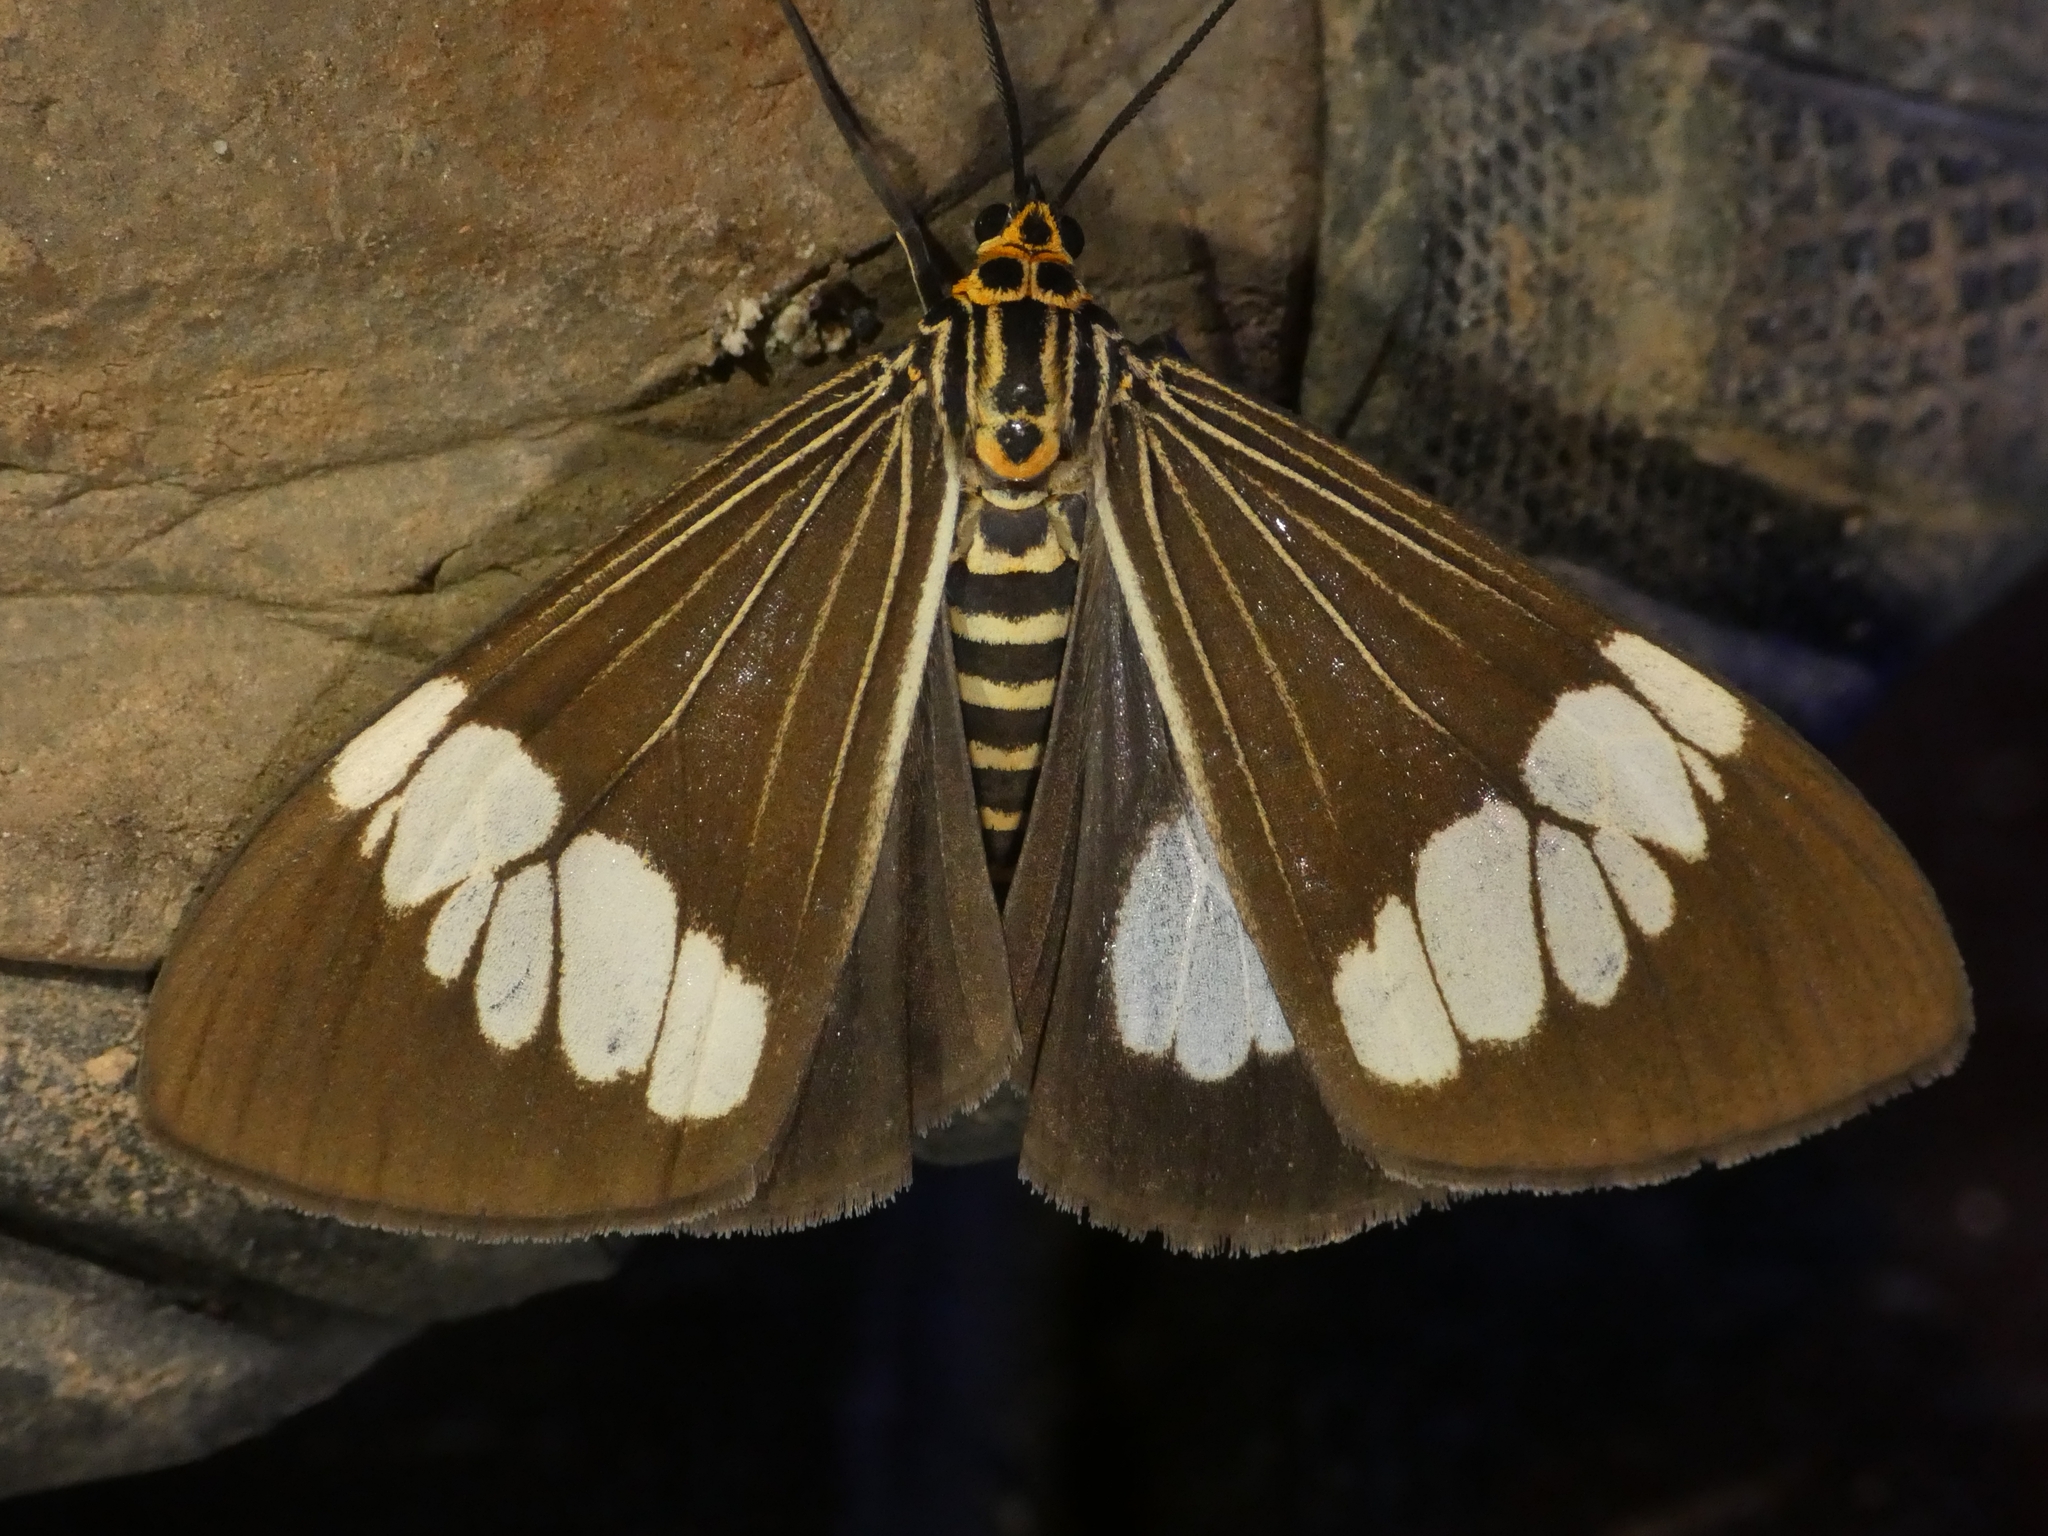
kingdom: Animalia
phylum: Arthropoda
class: Insecta
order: Lepidoptera
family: Erebidae
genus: Nyctemera
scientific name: Nyctemera baulus
